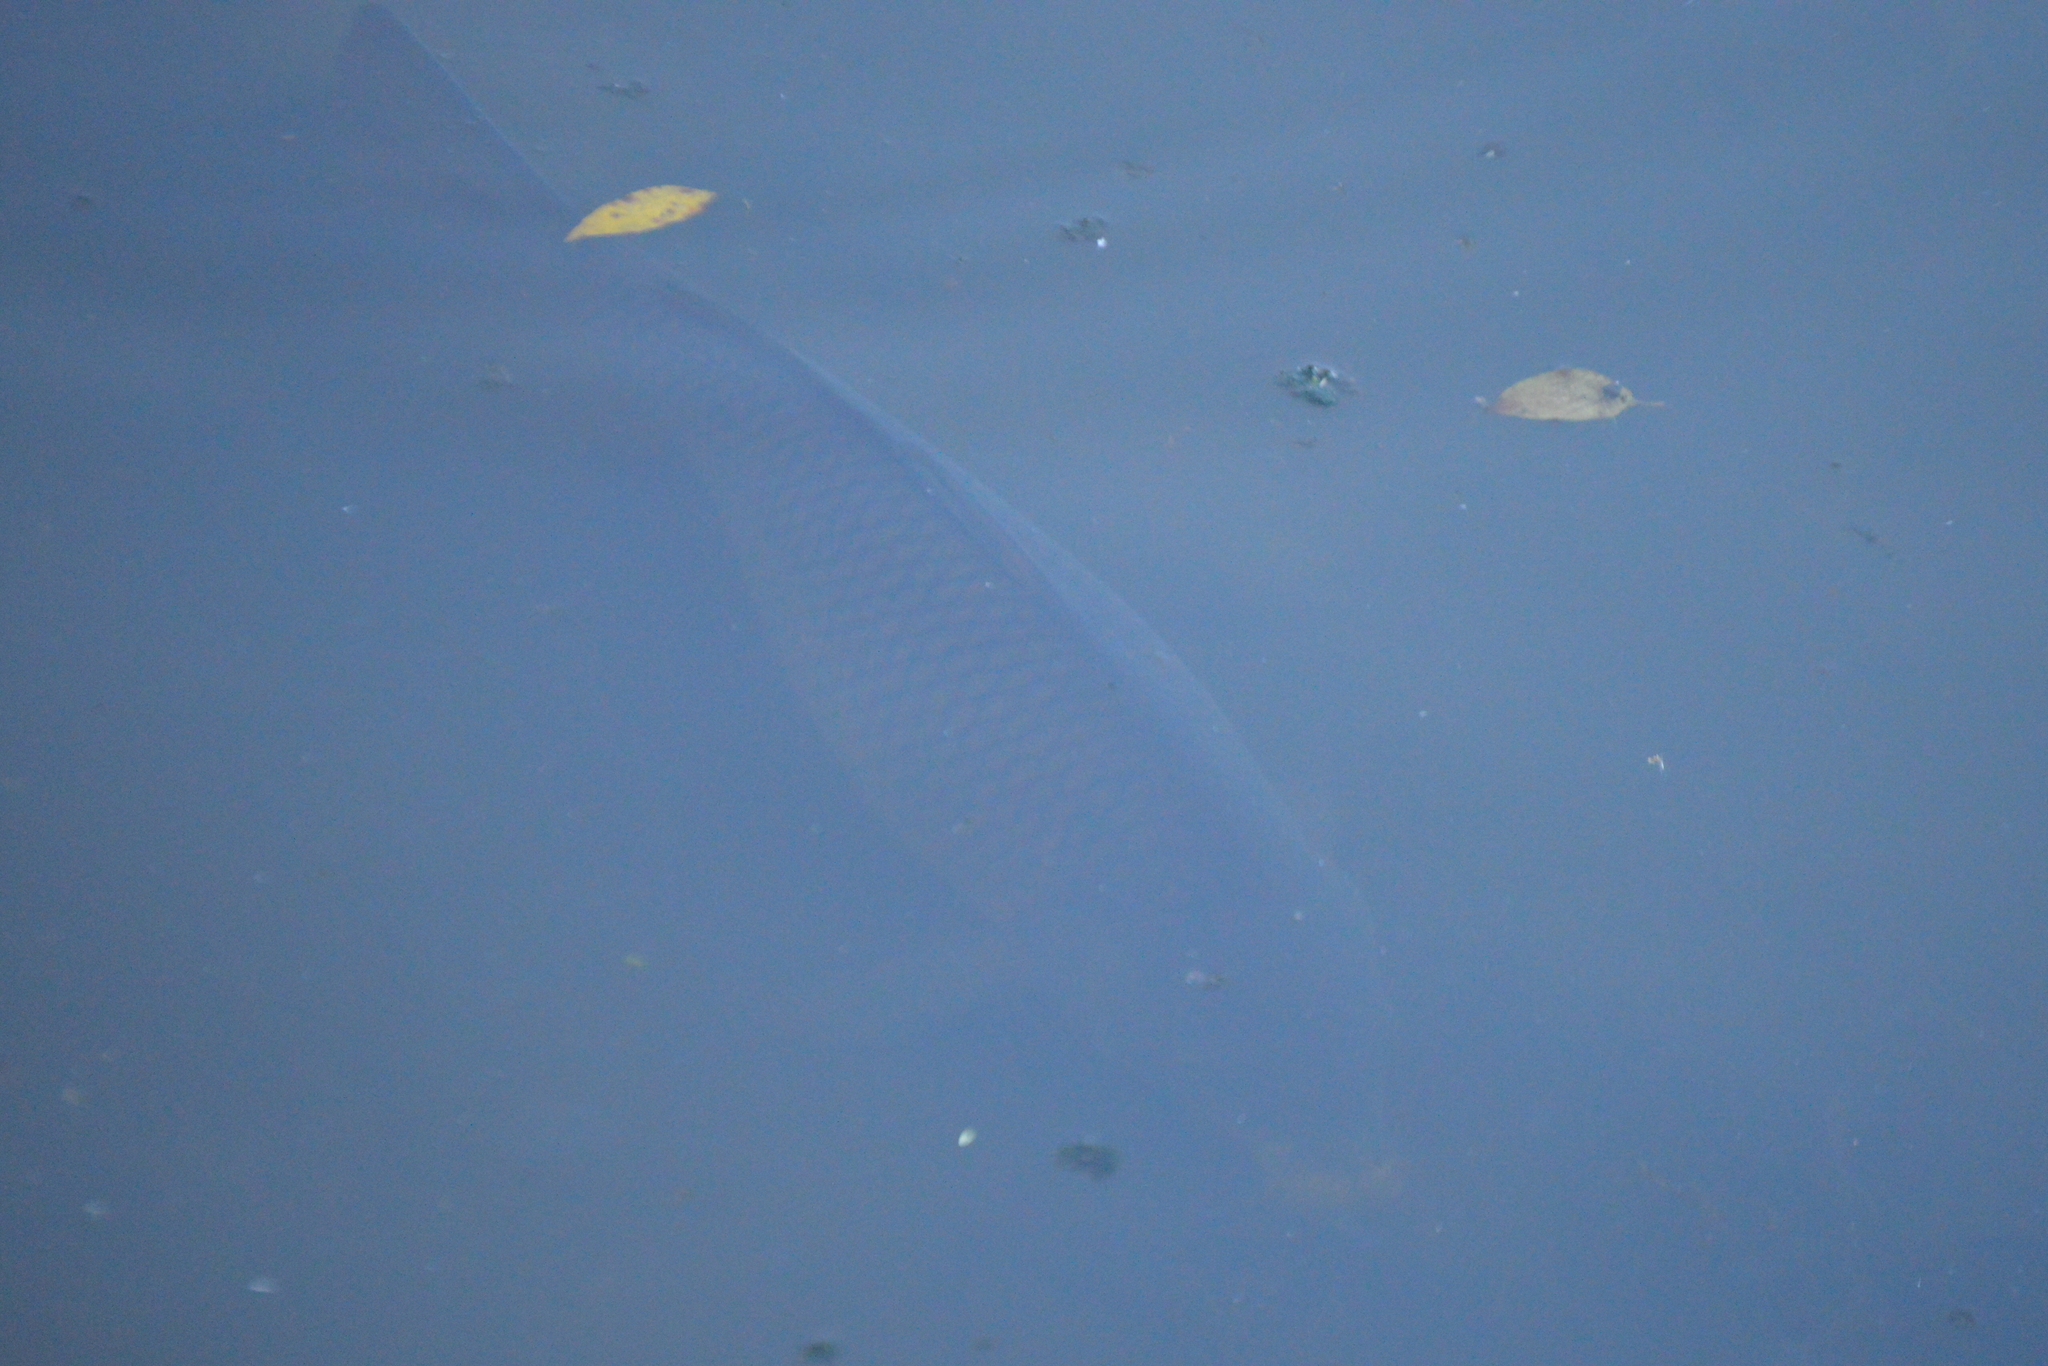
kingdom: Animalia
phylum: Chordata
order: Cypriniformes
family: Cyprinidae
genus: Cyprinus
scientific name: Cyprinus carpio
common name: Common carp
